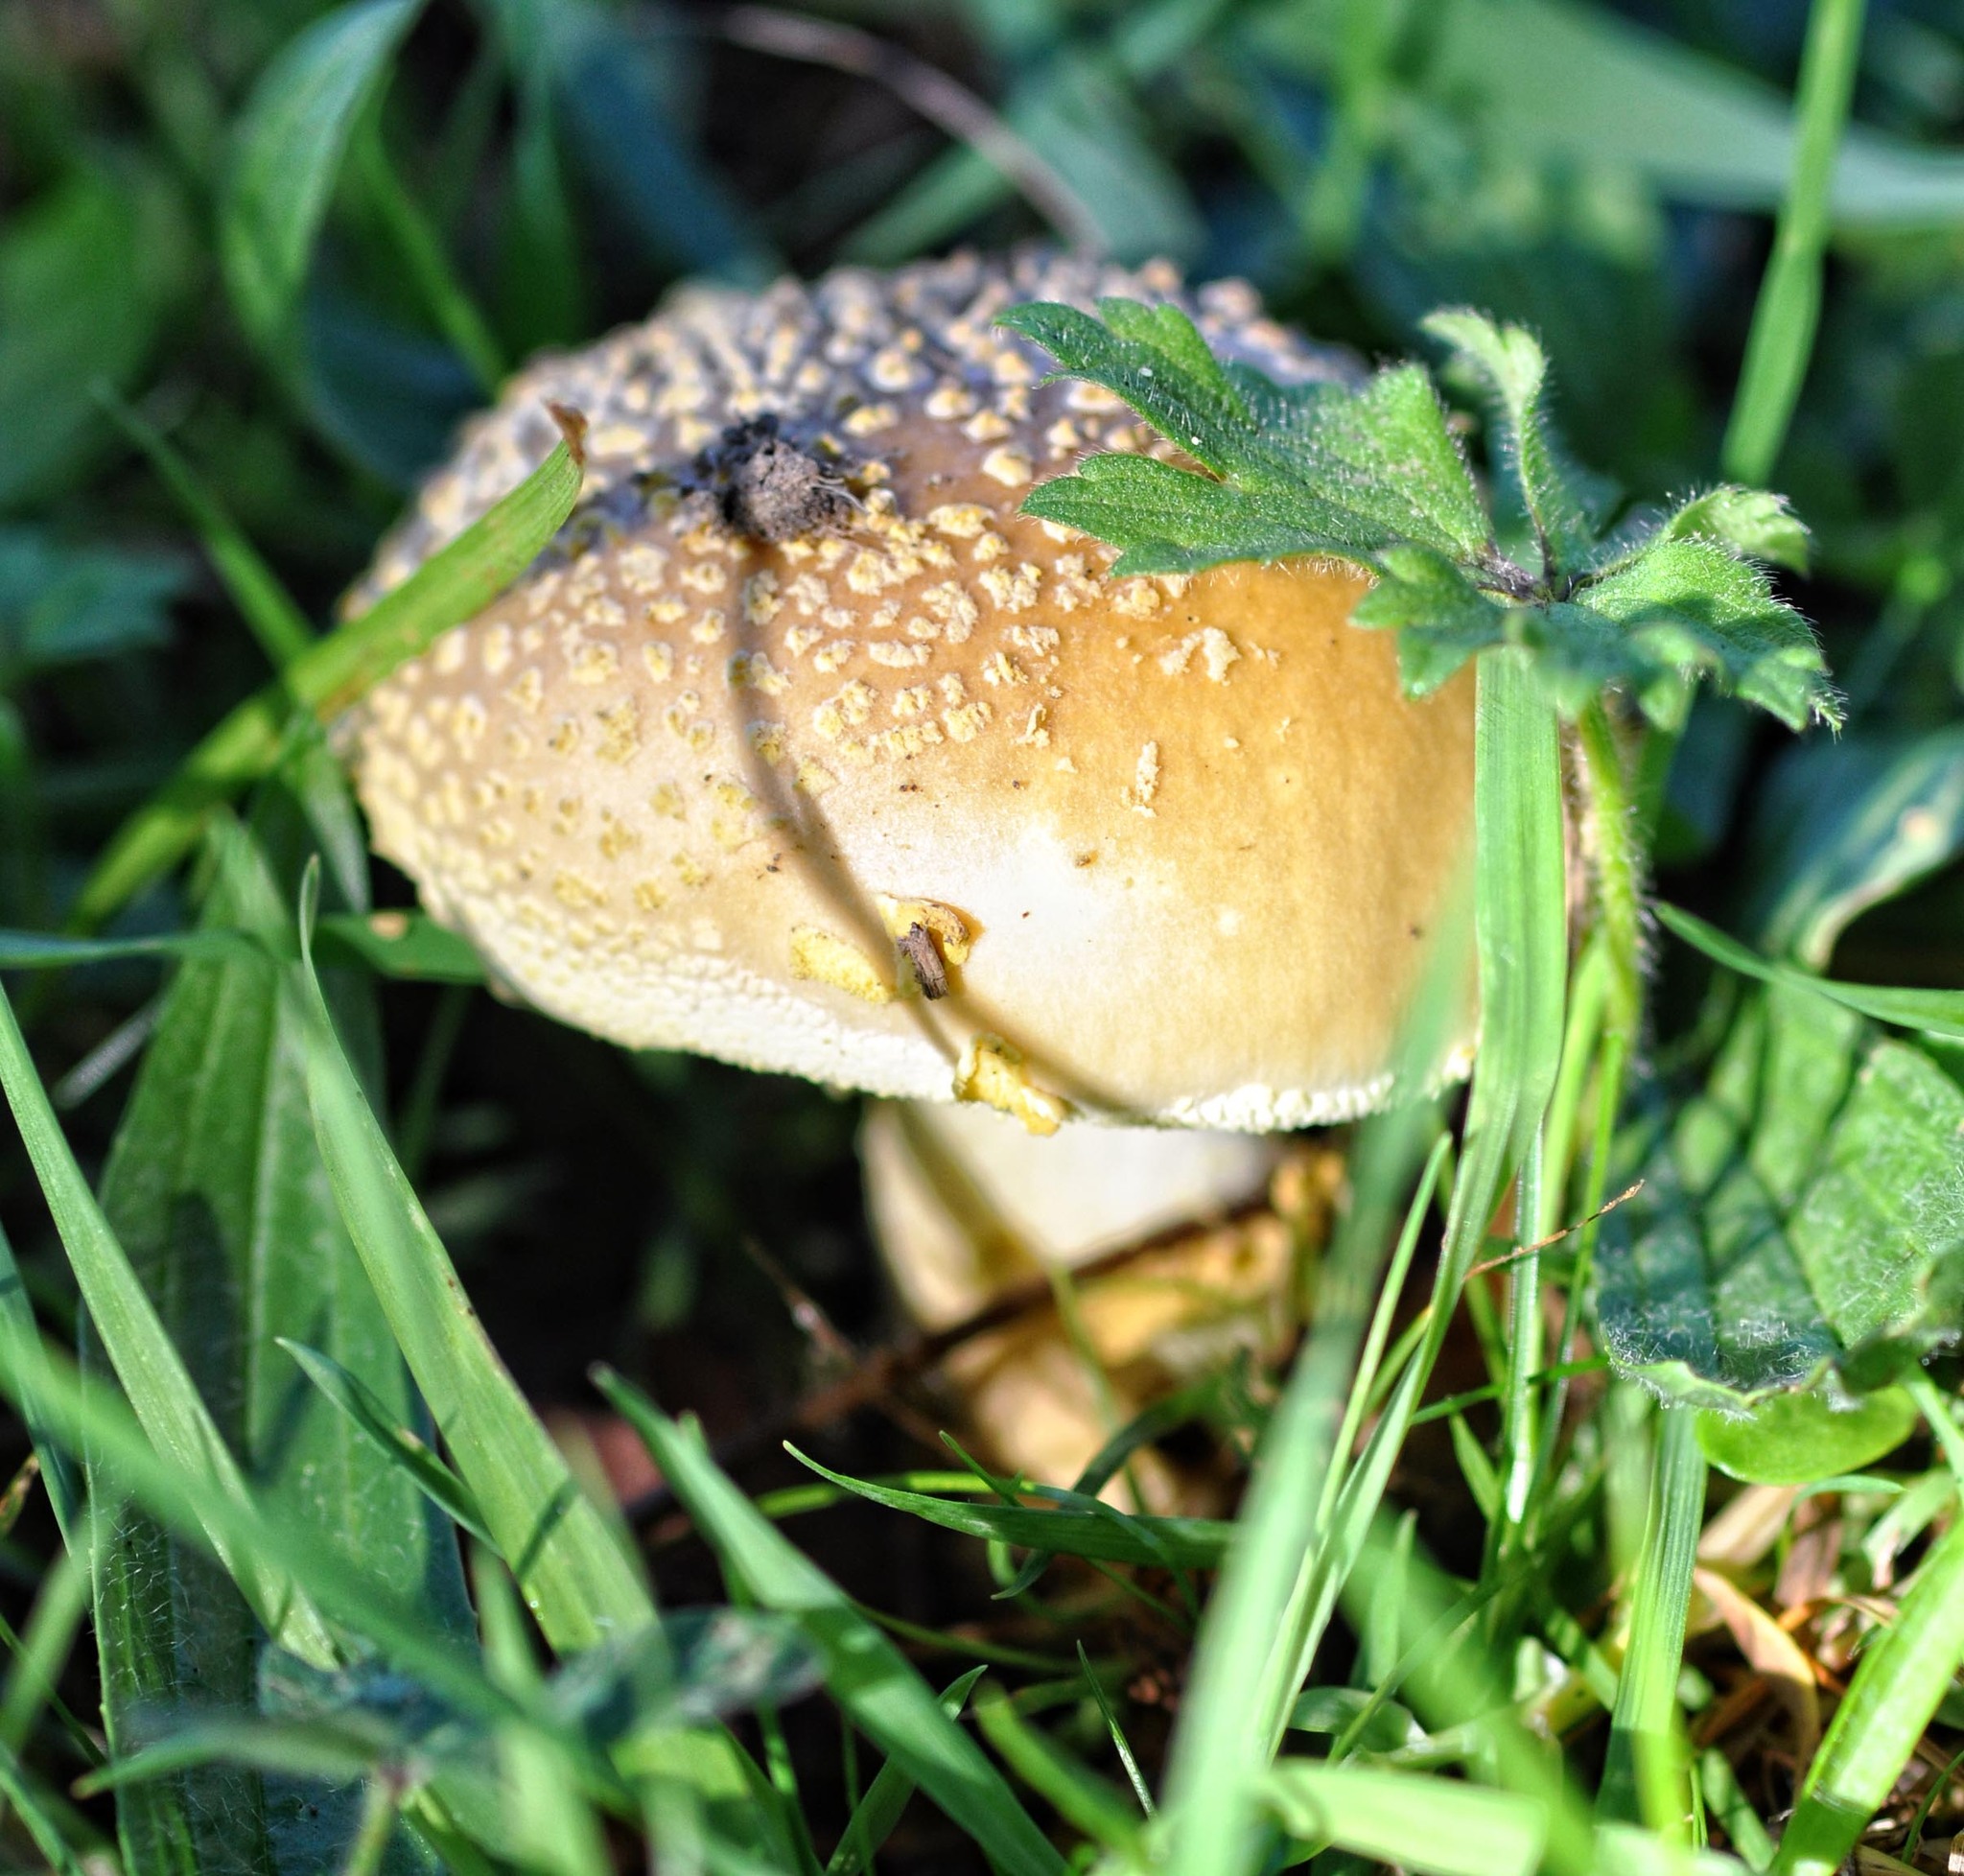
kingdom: Fungi
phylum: Basidiomycota
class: Agaricomycetes
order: Agaricales
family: Amanitaceae
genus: Amanita
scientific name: Amanita franchetii
